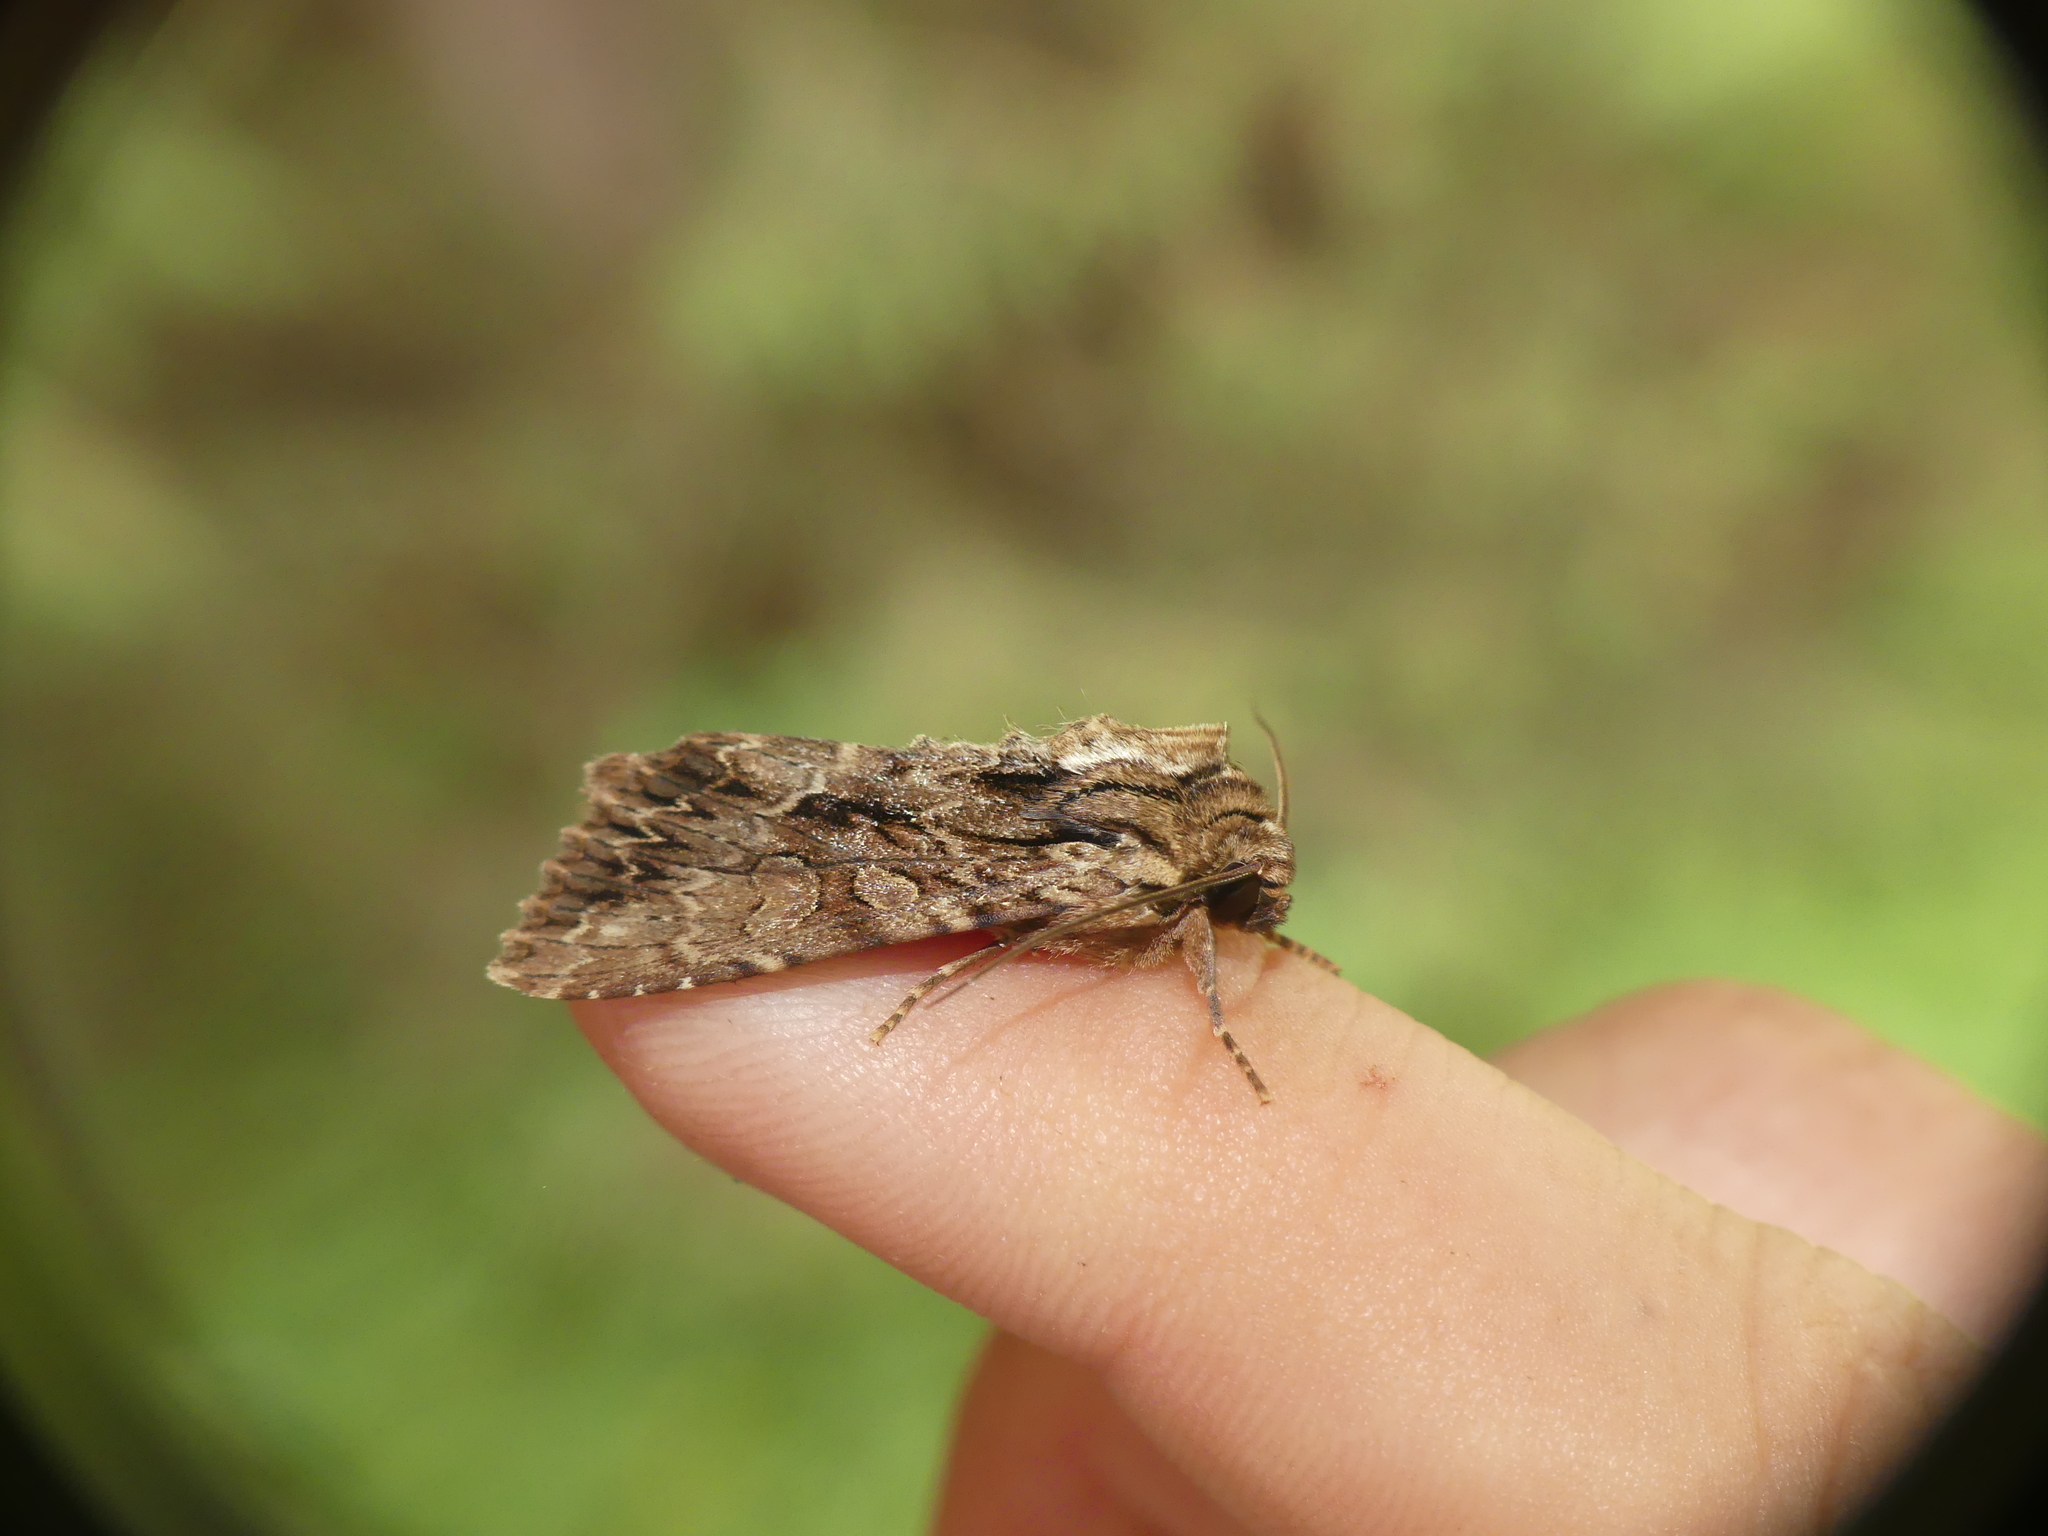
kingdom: Animalia
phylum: Arthropoda
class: Insecta
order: Lepidoptera
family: Noctuidae
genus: Apamea
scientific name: Apamea monoglypha
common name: Dark arches
